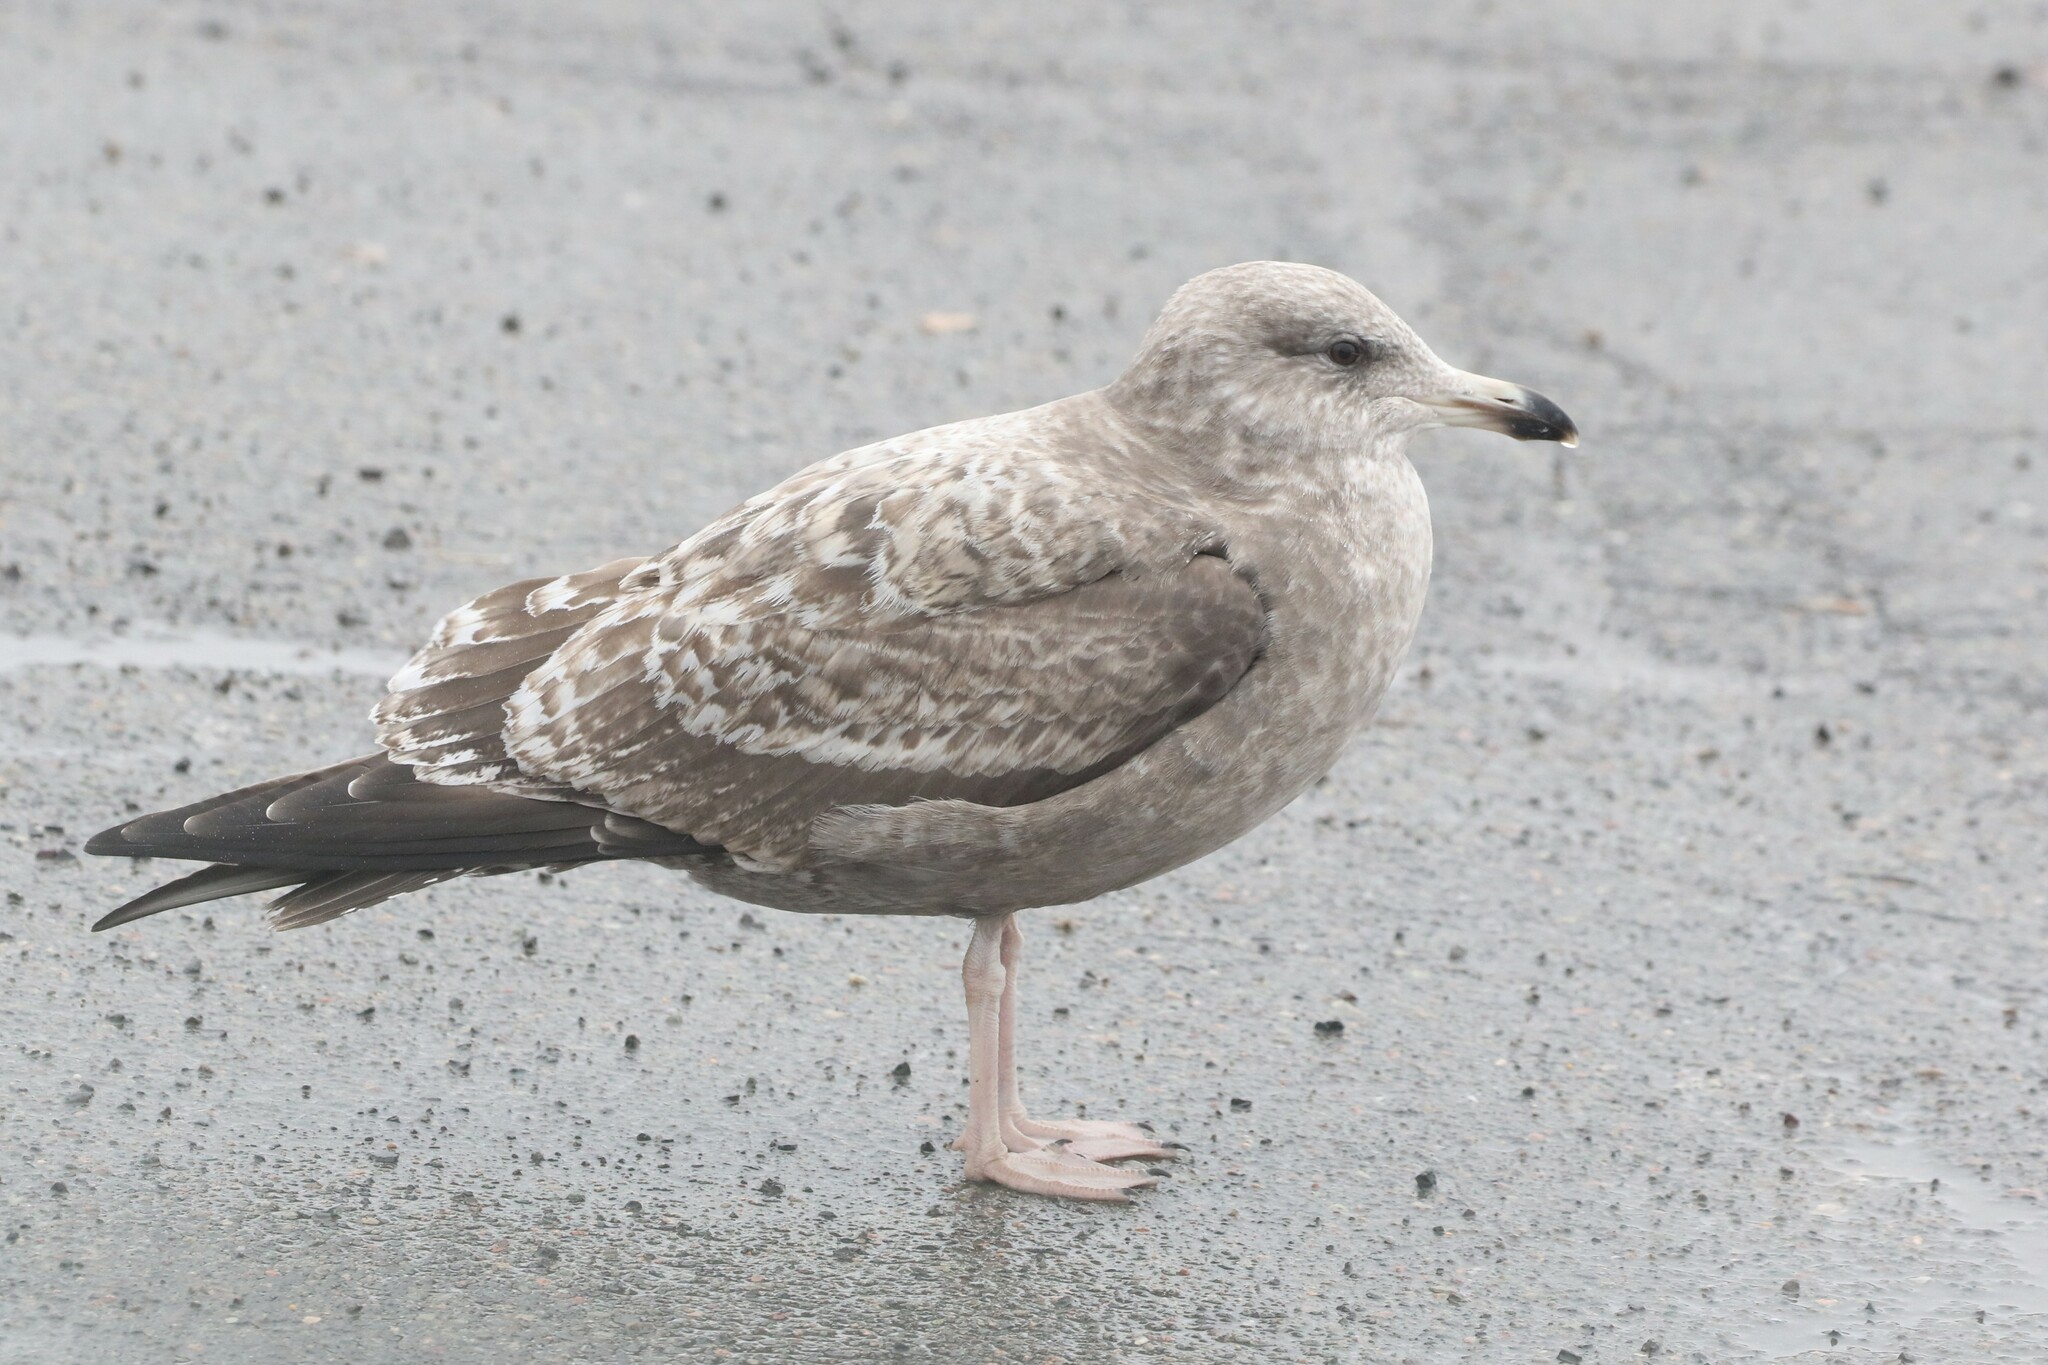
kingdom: Animalia
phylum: Chordata
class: Aves
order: Charadriiformes
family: Laridae
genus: Larus
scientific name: Larus argentatus
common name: Herring gull
